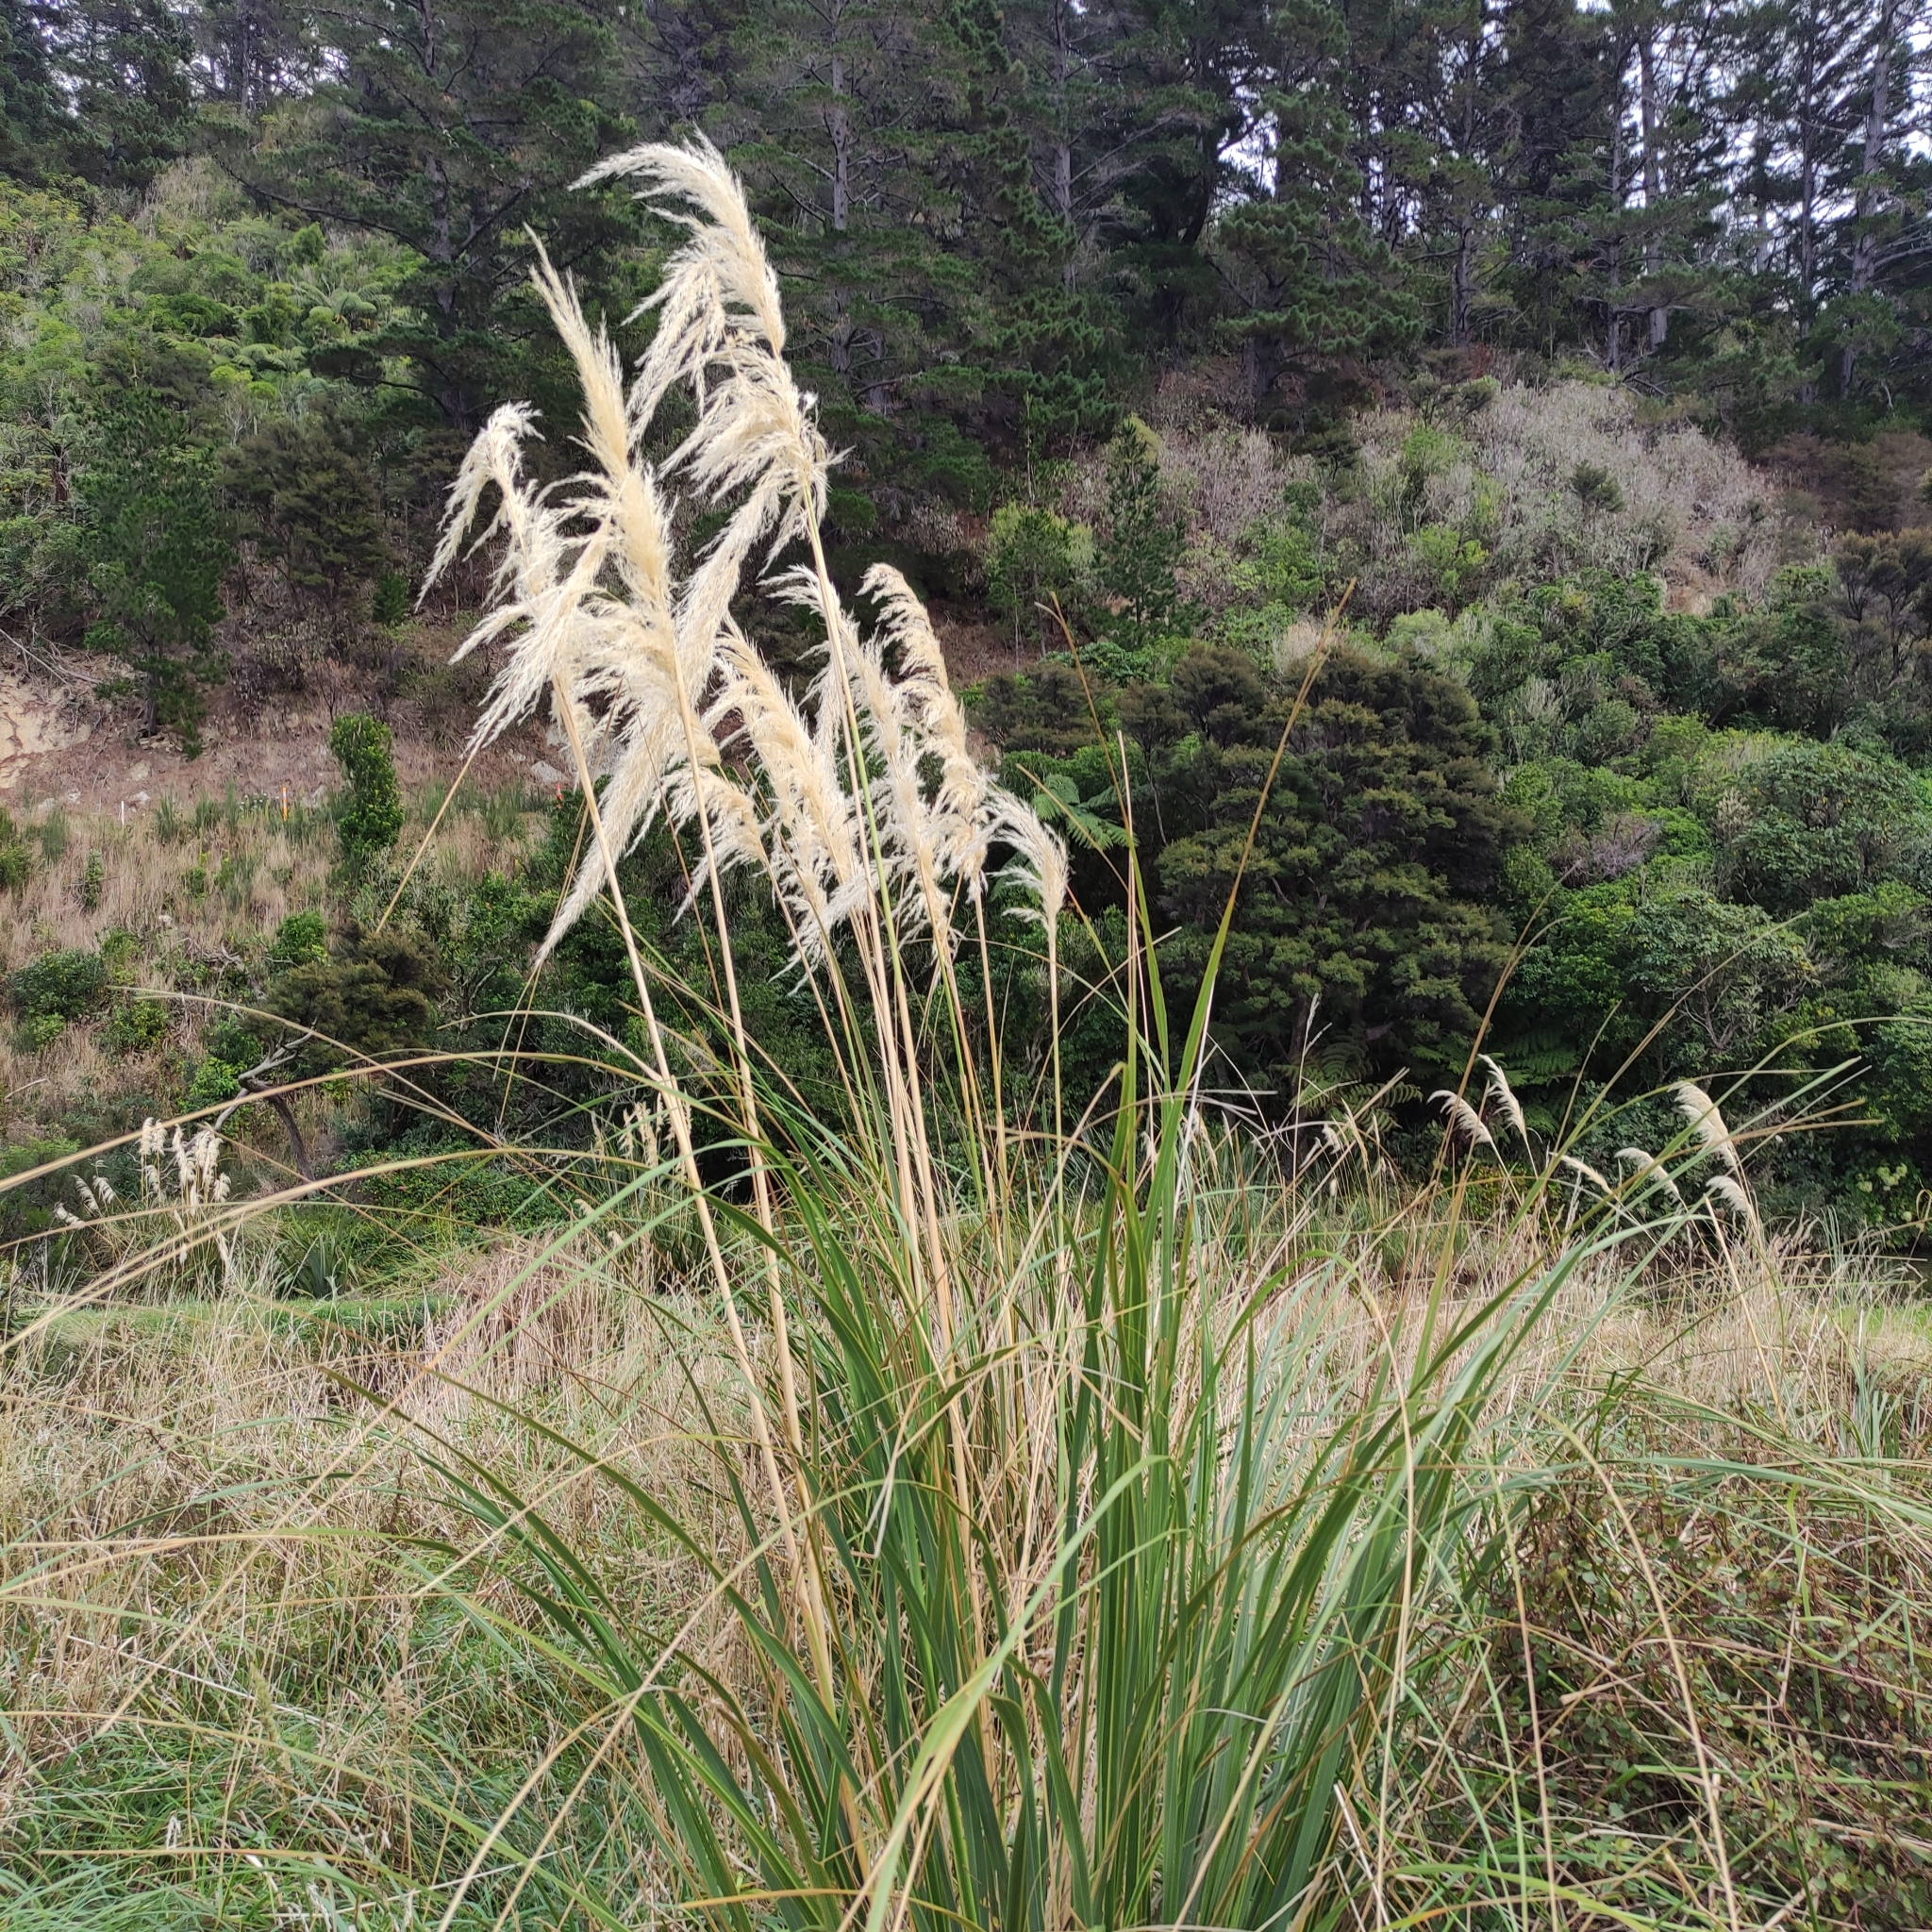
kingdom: Plantae
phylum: Tracheophyta
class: Liliopsida
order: Poales
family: Poaceae
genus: Austroderia
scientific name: Austroderia richardii
